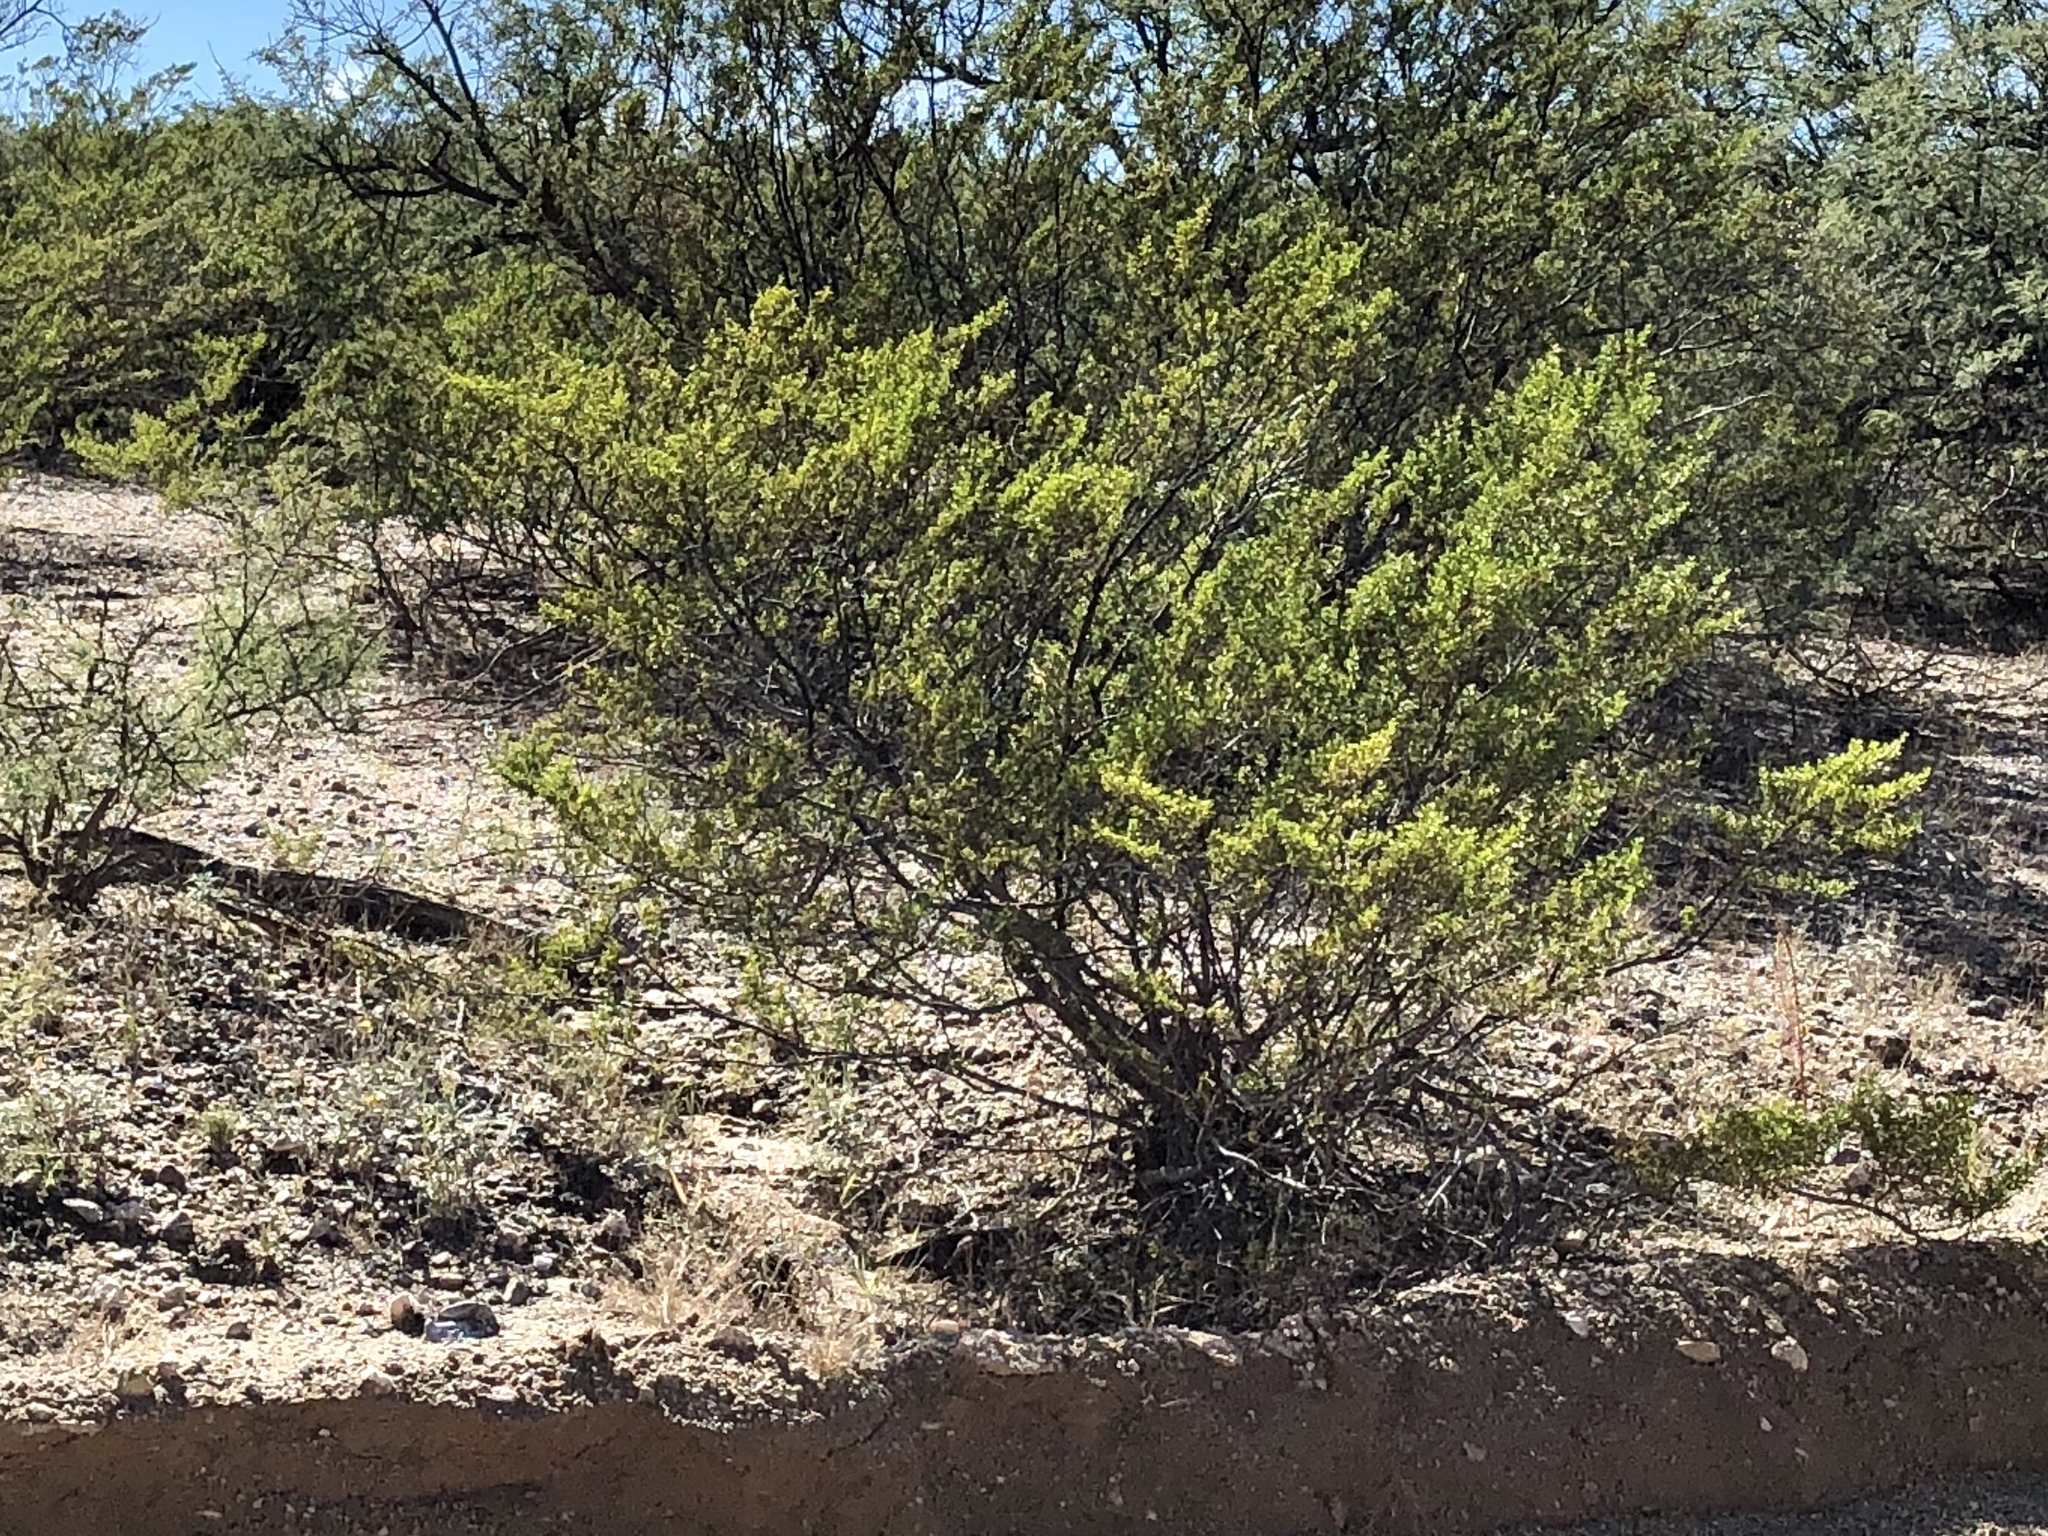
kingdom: Plantae
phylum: Tracheophyta
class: Magnoliopsida
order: Zygophyllales
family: Zygophyllaceae
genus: Larrea
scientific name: Larrea tridentata
